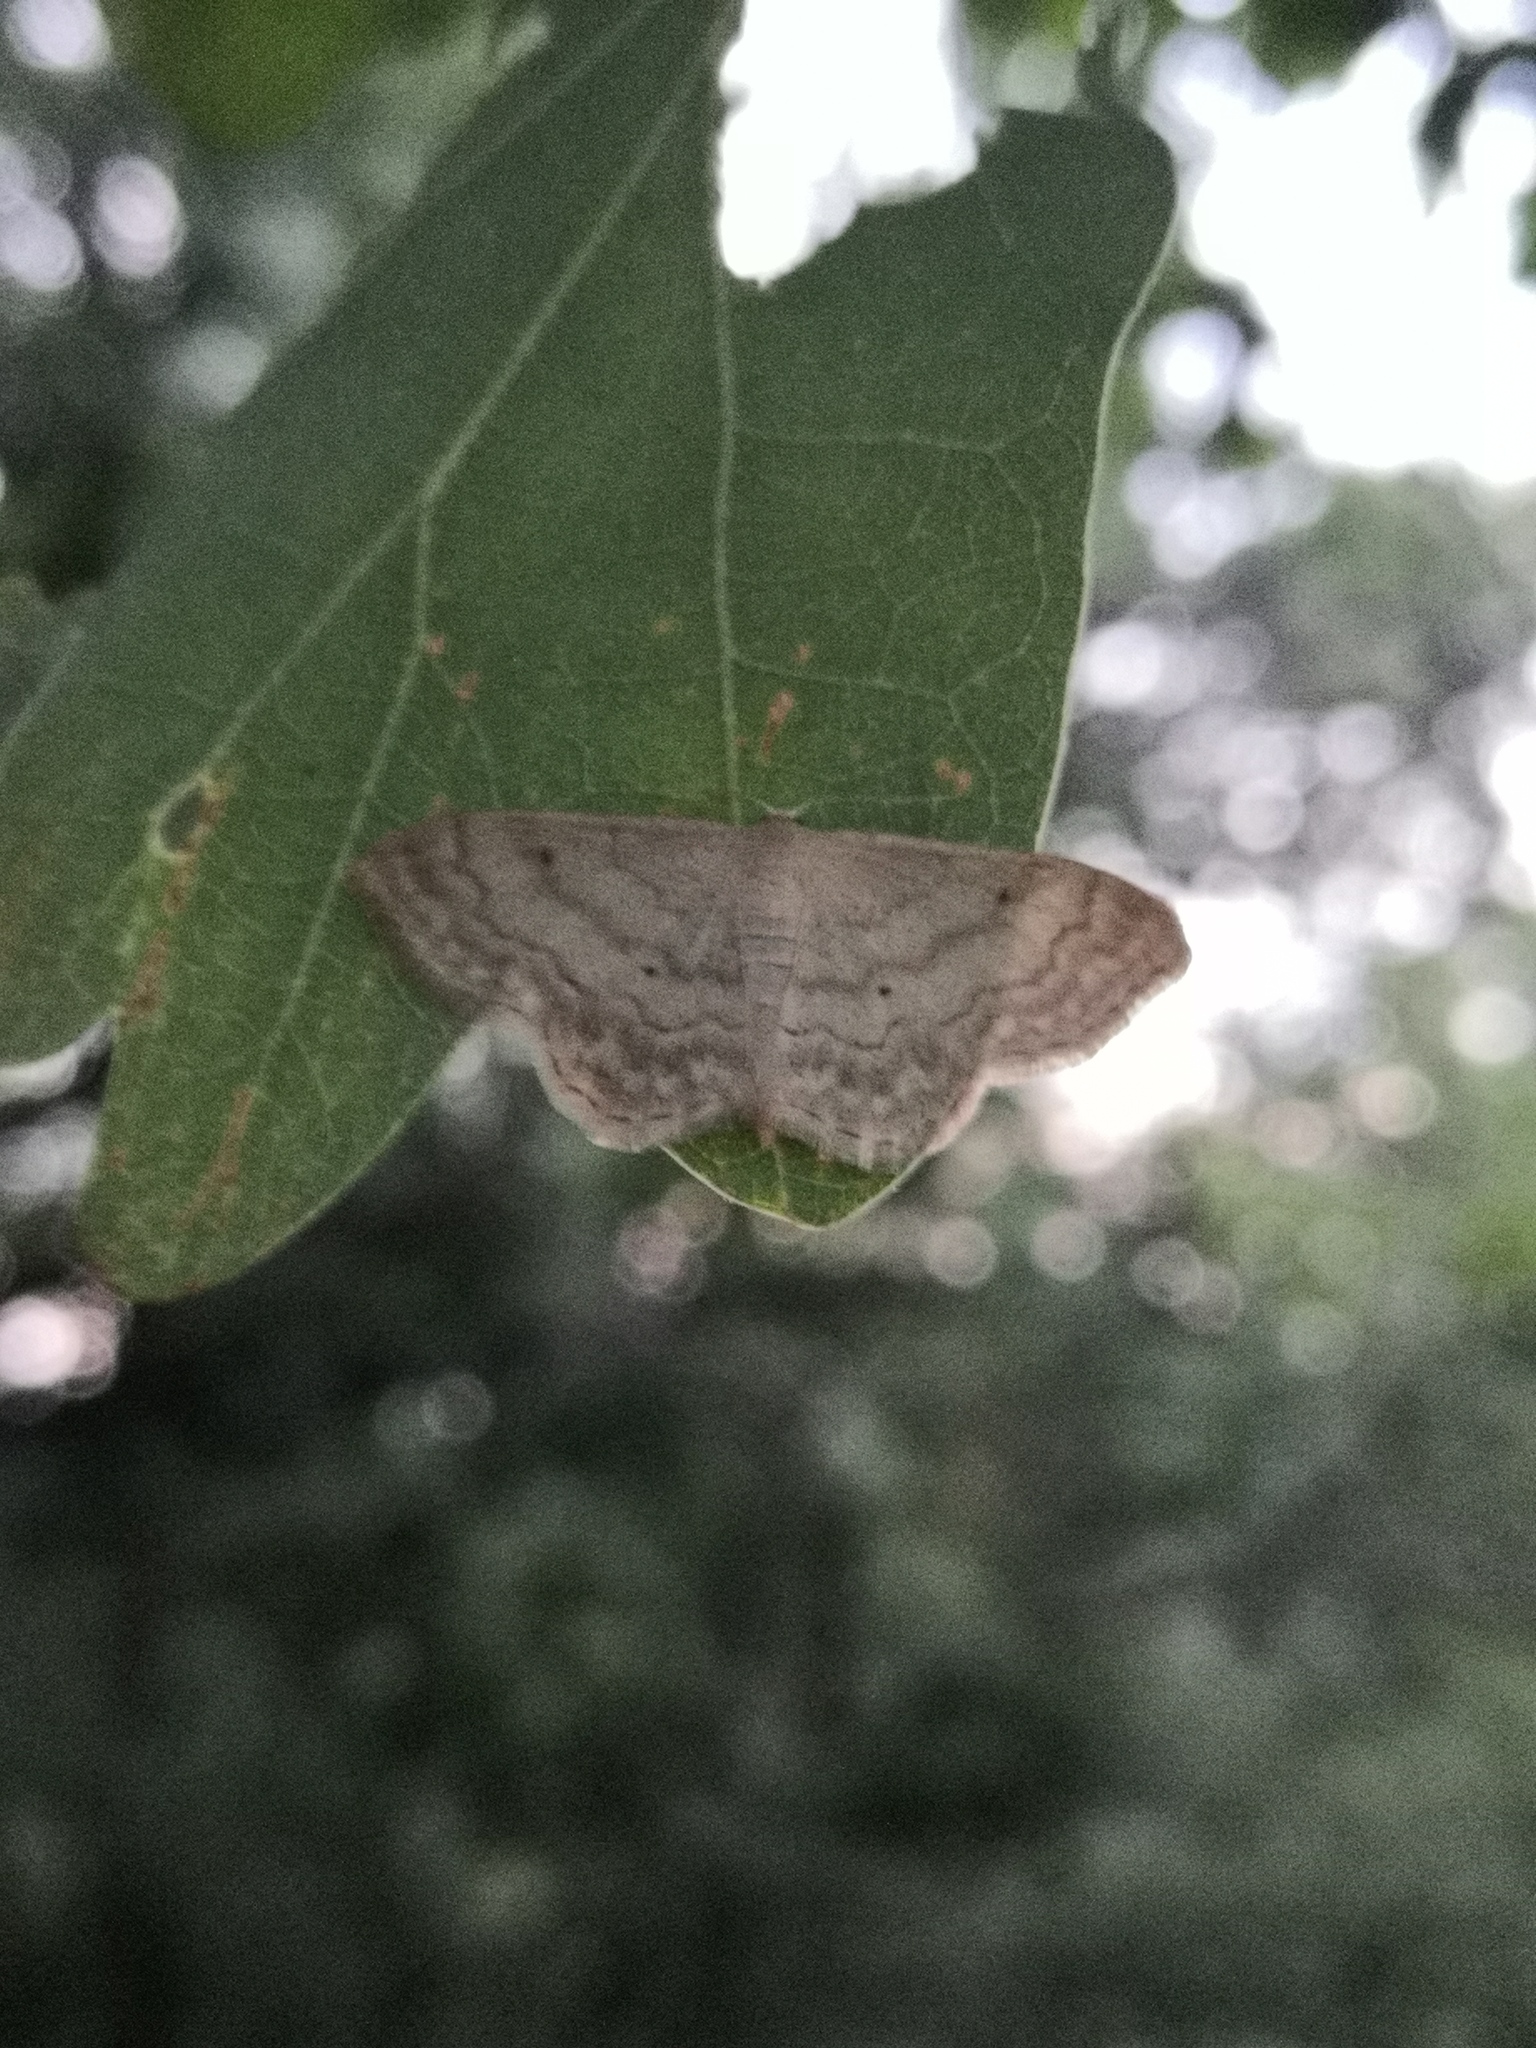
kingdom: Animalia
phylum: Arthropoda
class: Insecta
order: Lepidoptera
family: Geometridae
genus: Idaea
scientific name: Idaea maritimaria
